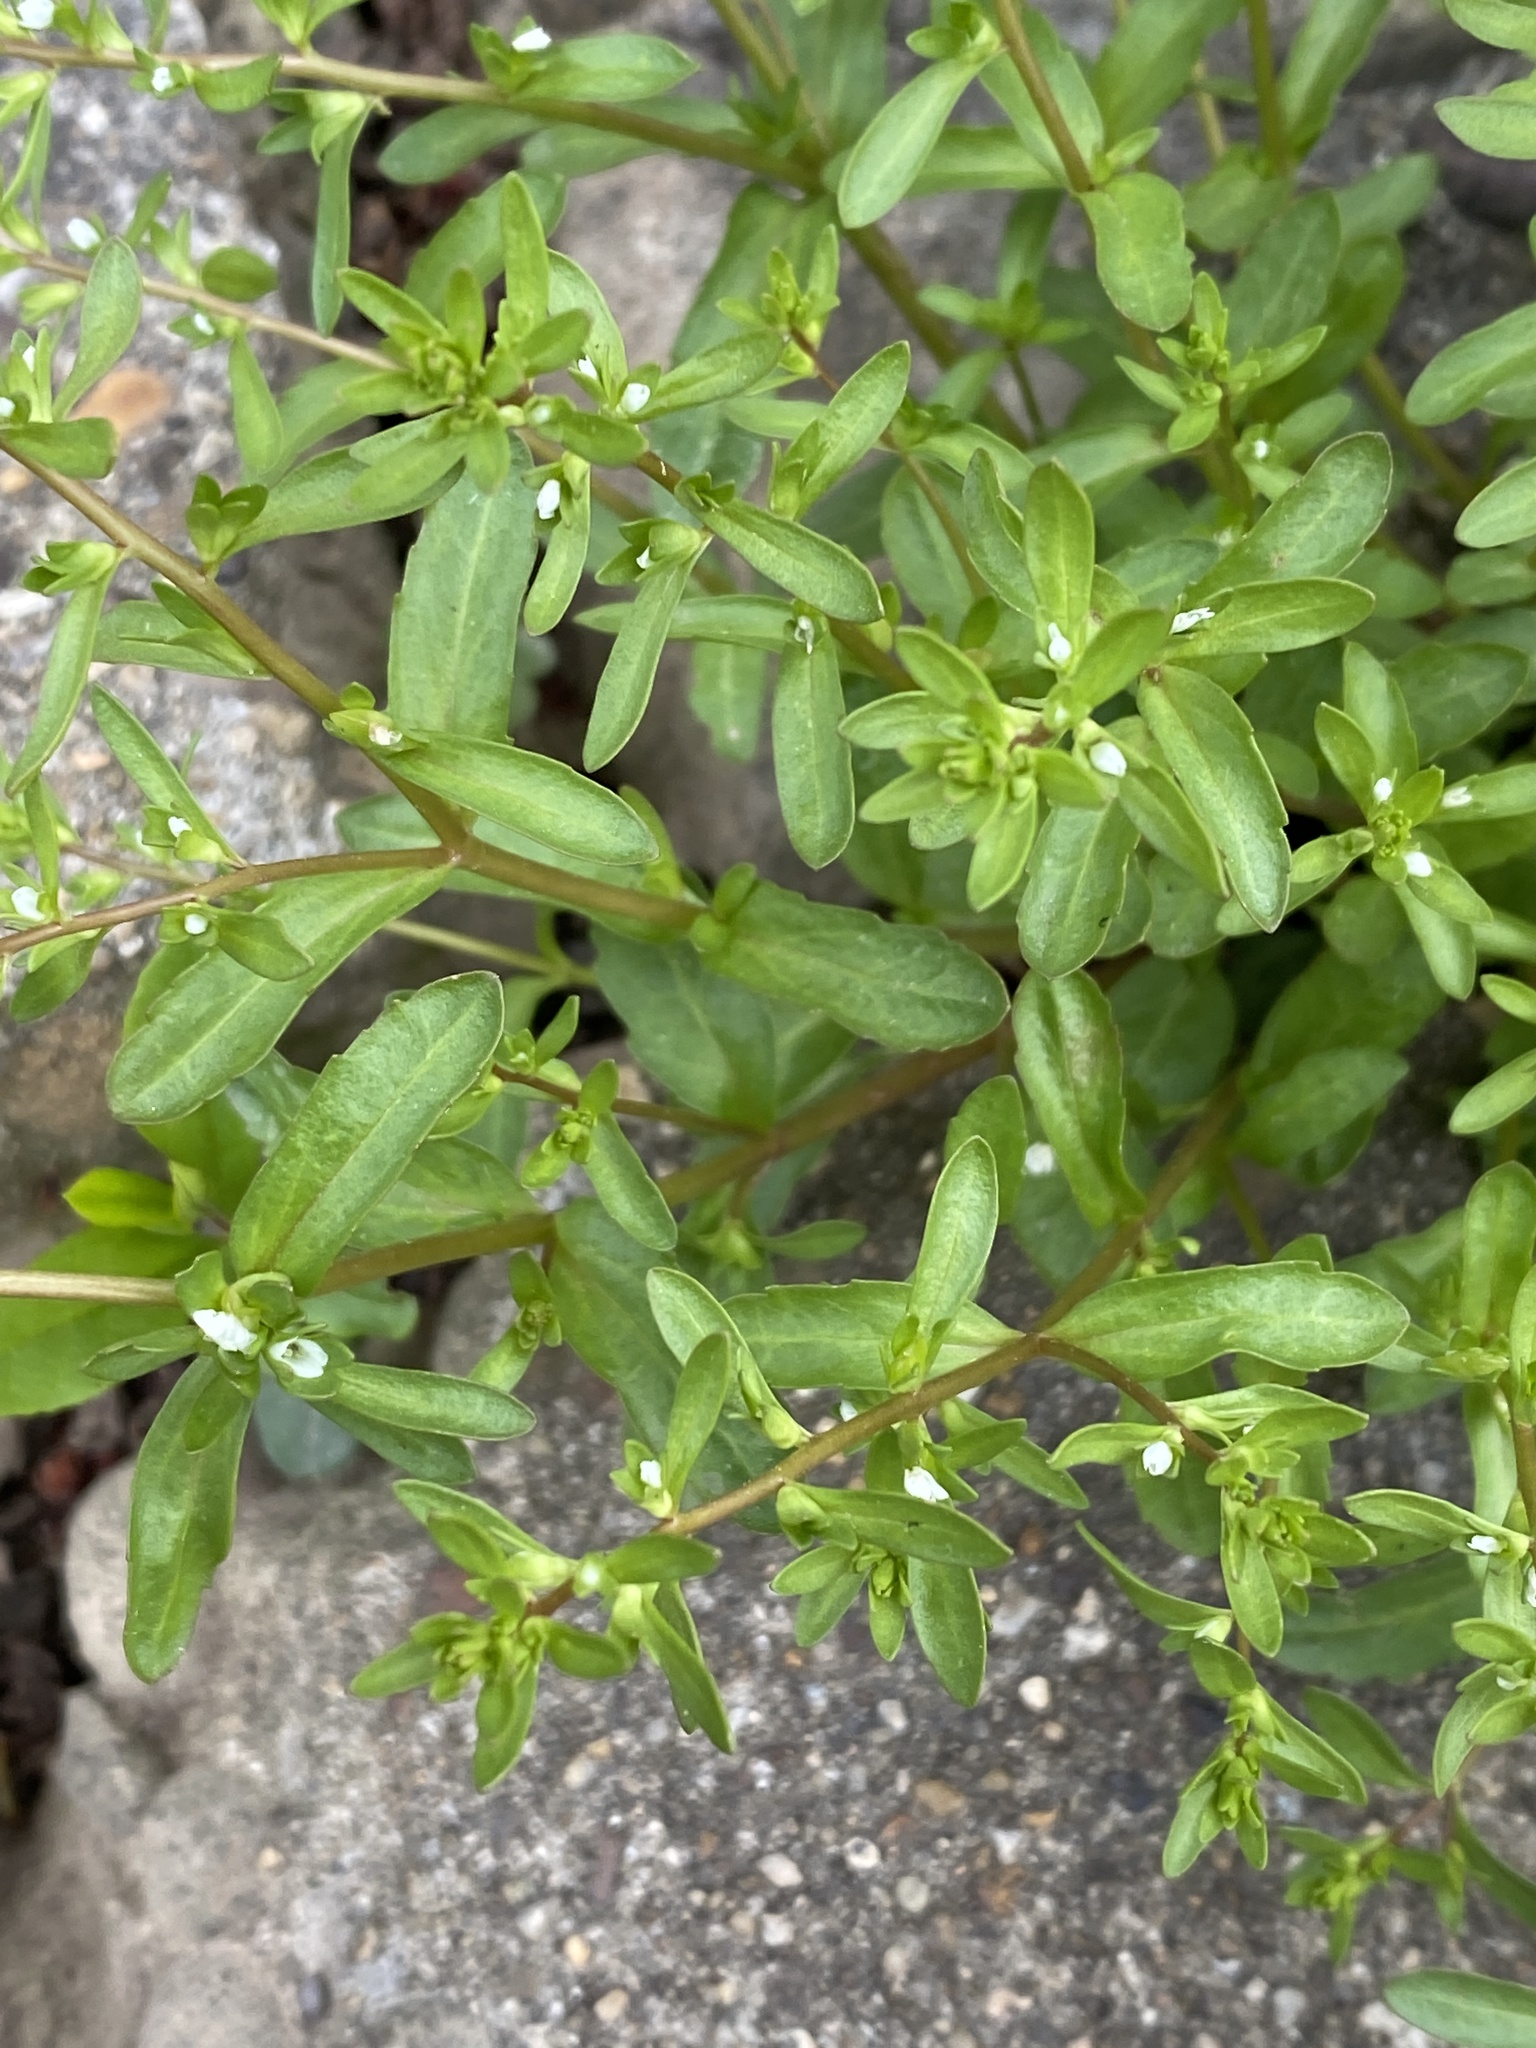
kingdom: Plantae
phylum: Tracheophyta
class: Magnoliopsida
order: Lamiales
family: Plantaginaceae
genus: Veronica
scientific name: Veronica peregrina
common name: Neckweed
